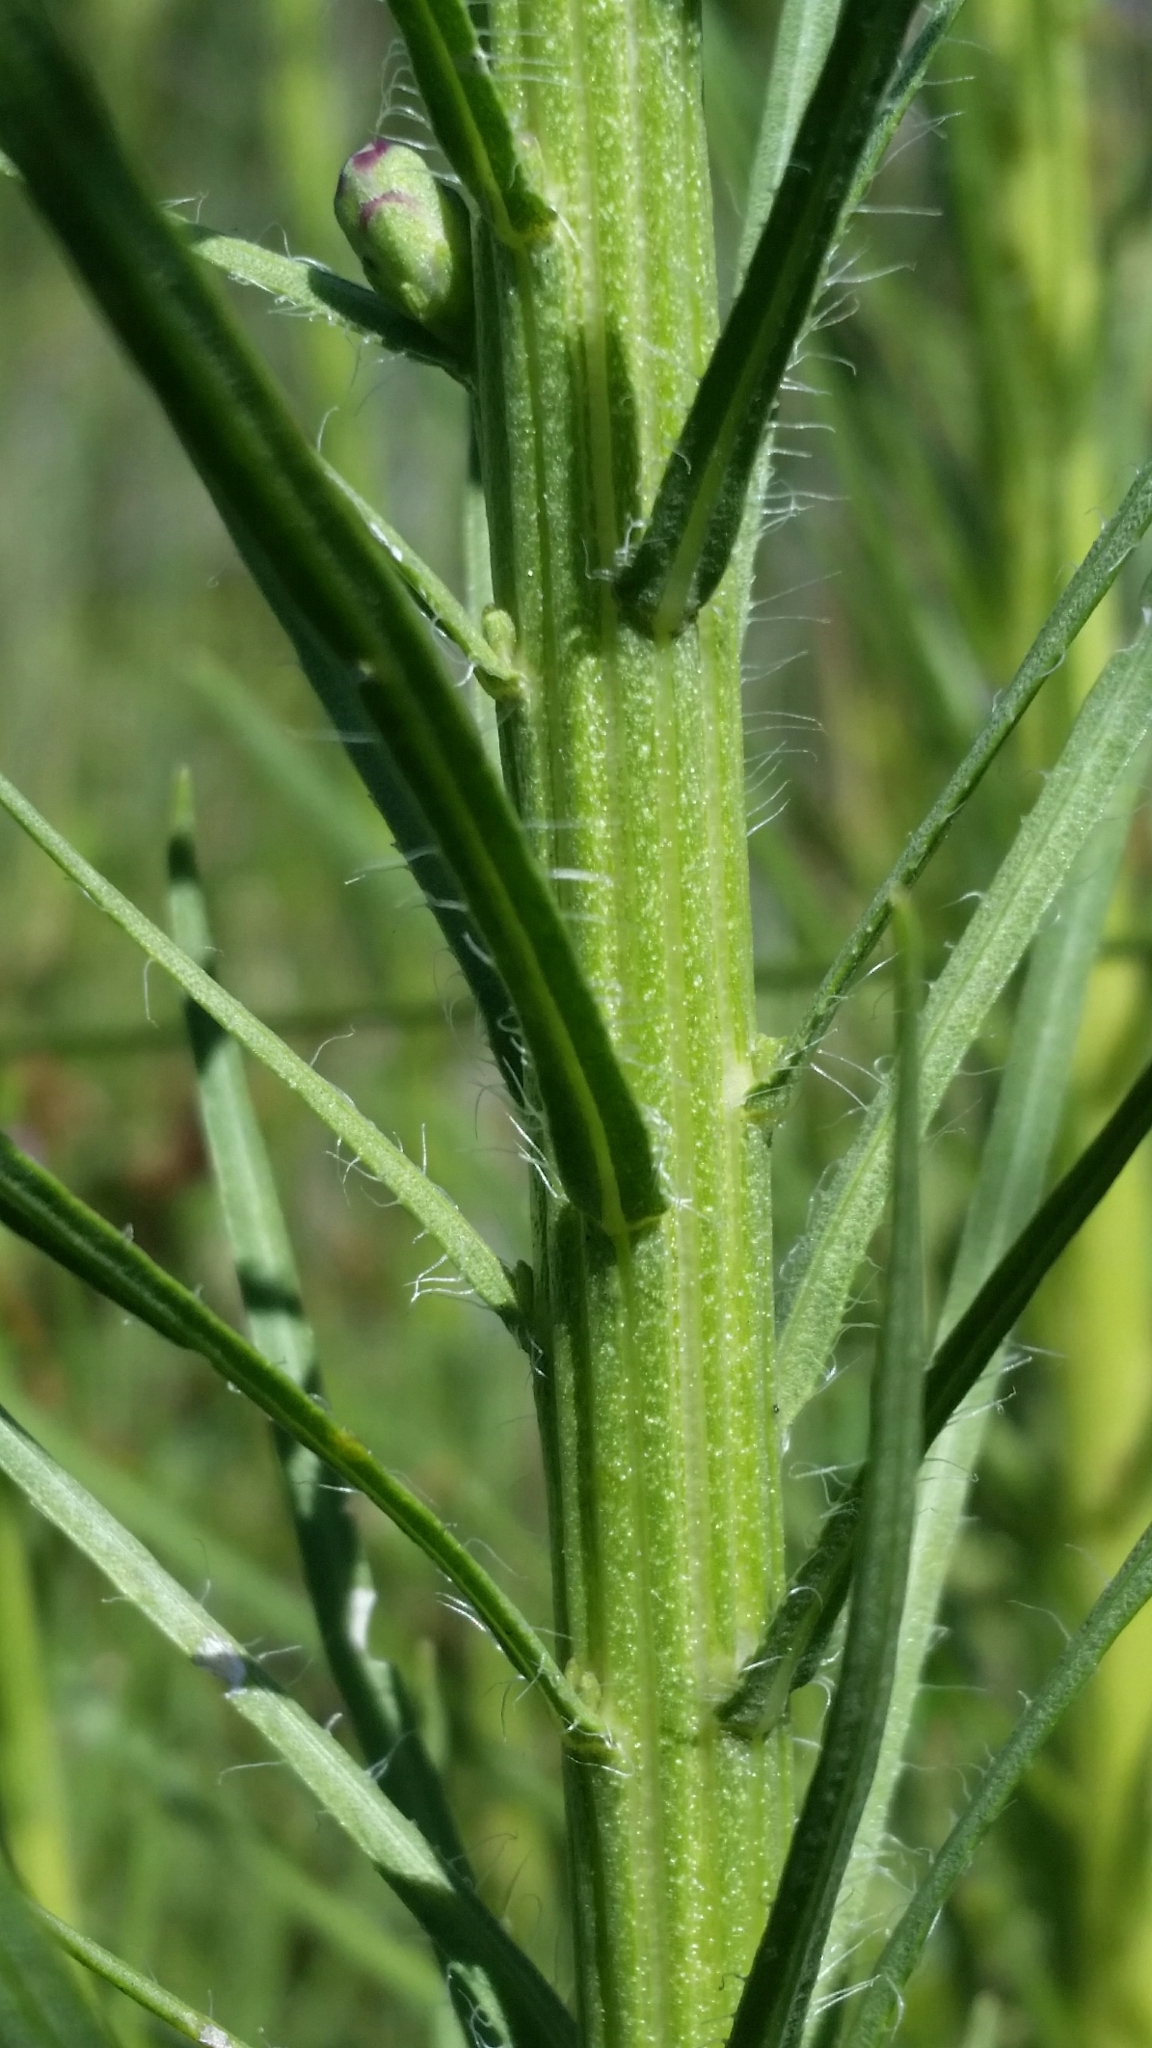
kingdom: Plantae
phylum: Tracheophyta
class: Magnoliopsida
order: Asterales
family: Asteraceae
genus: Liatris
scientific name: Liatris spicata
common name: Florist gayfeather
